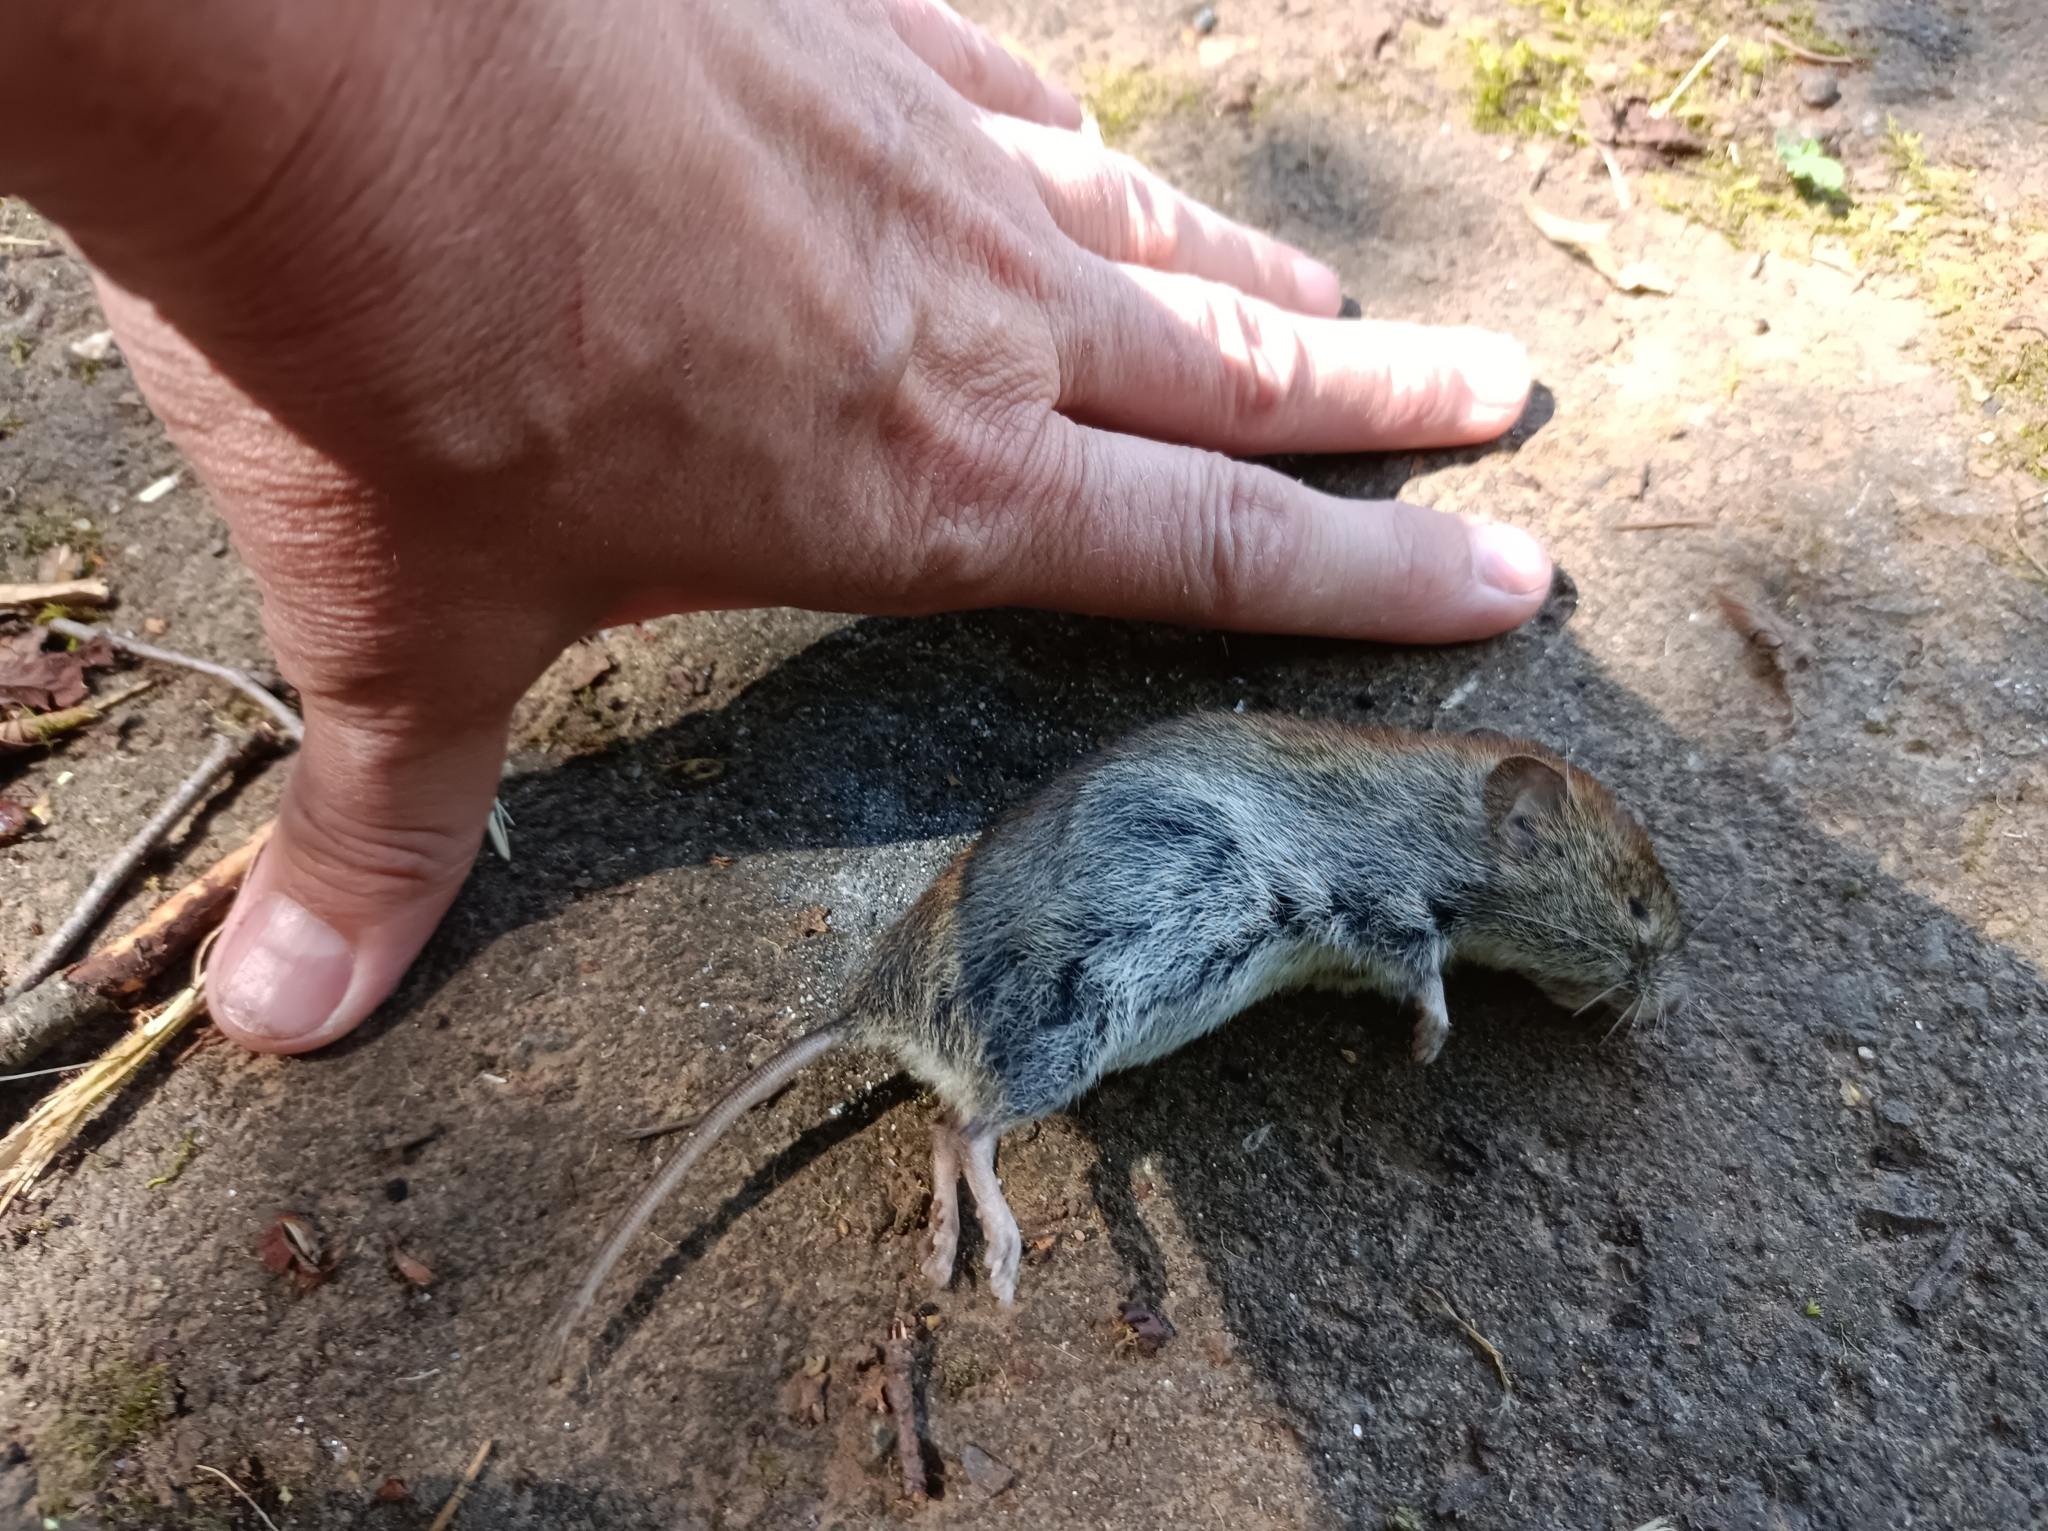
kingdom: Animalia
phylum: Chordata
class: Mammalia
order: Rodentia
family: Cricetidae
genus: Myodes
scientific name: Myodes glareolus
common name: Bank vole
